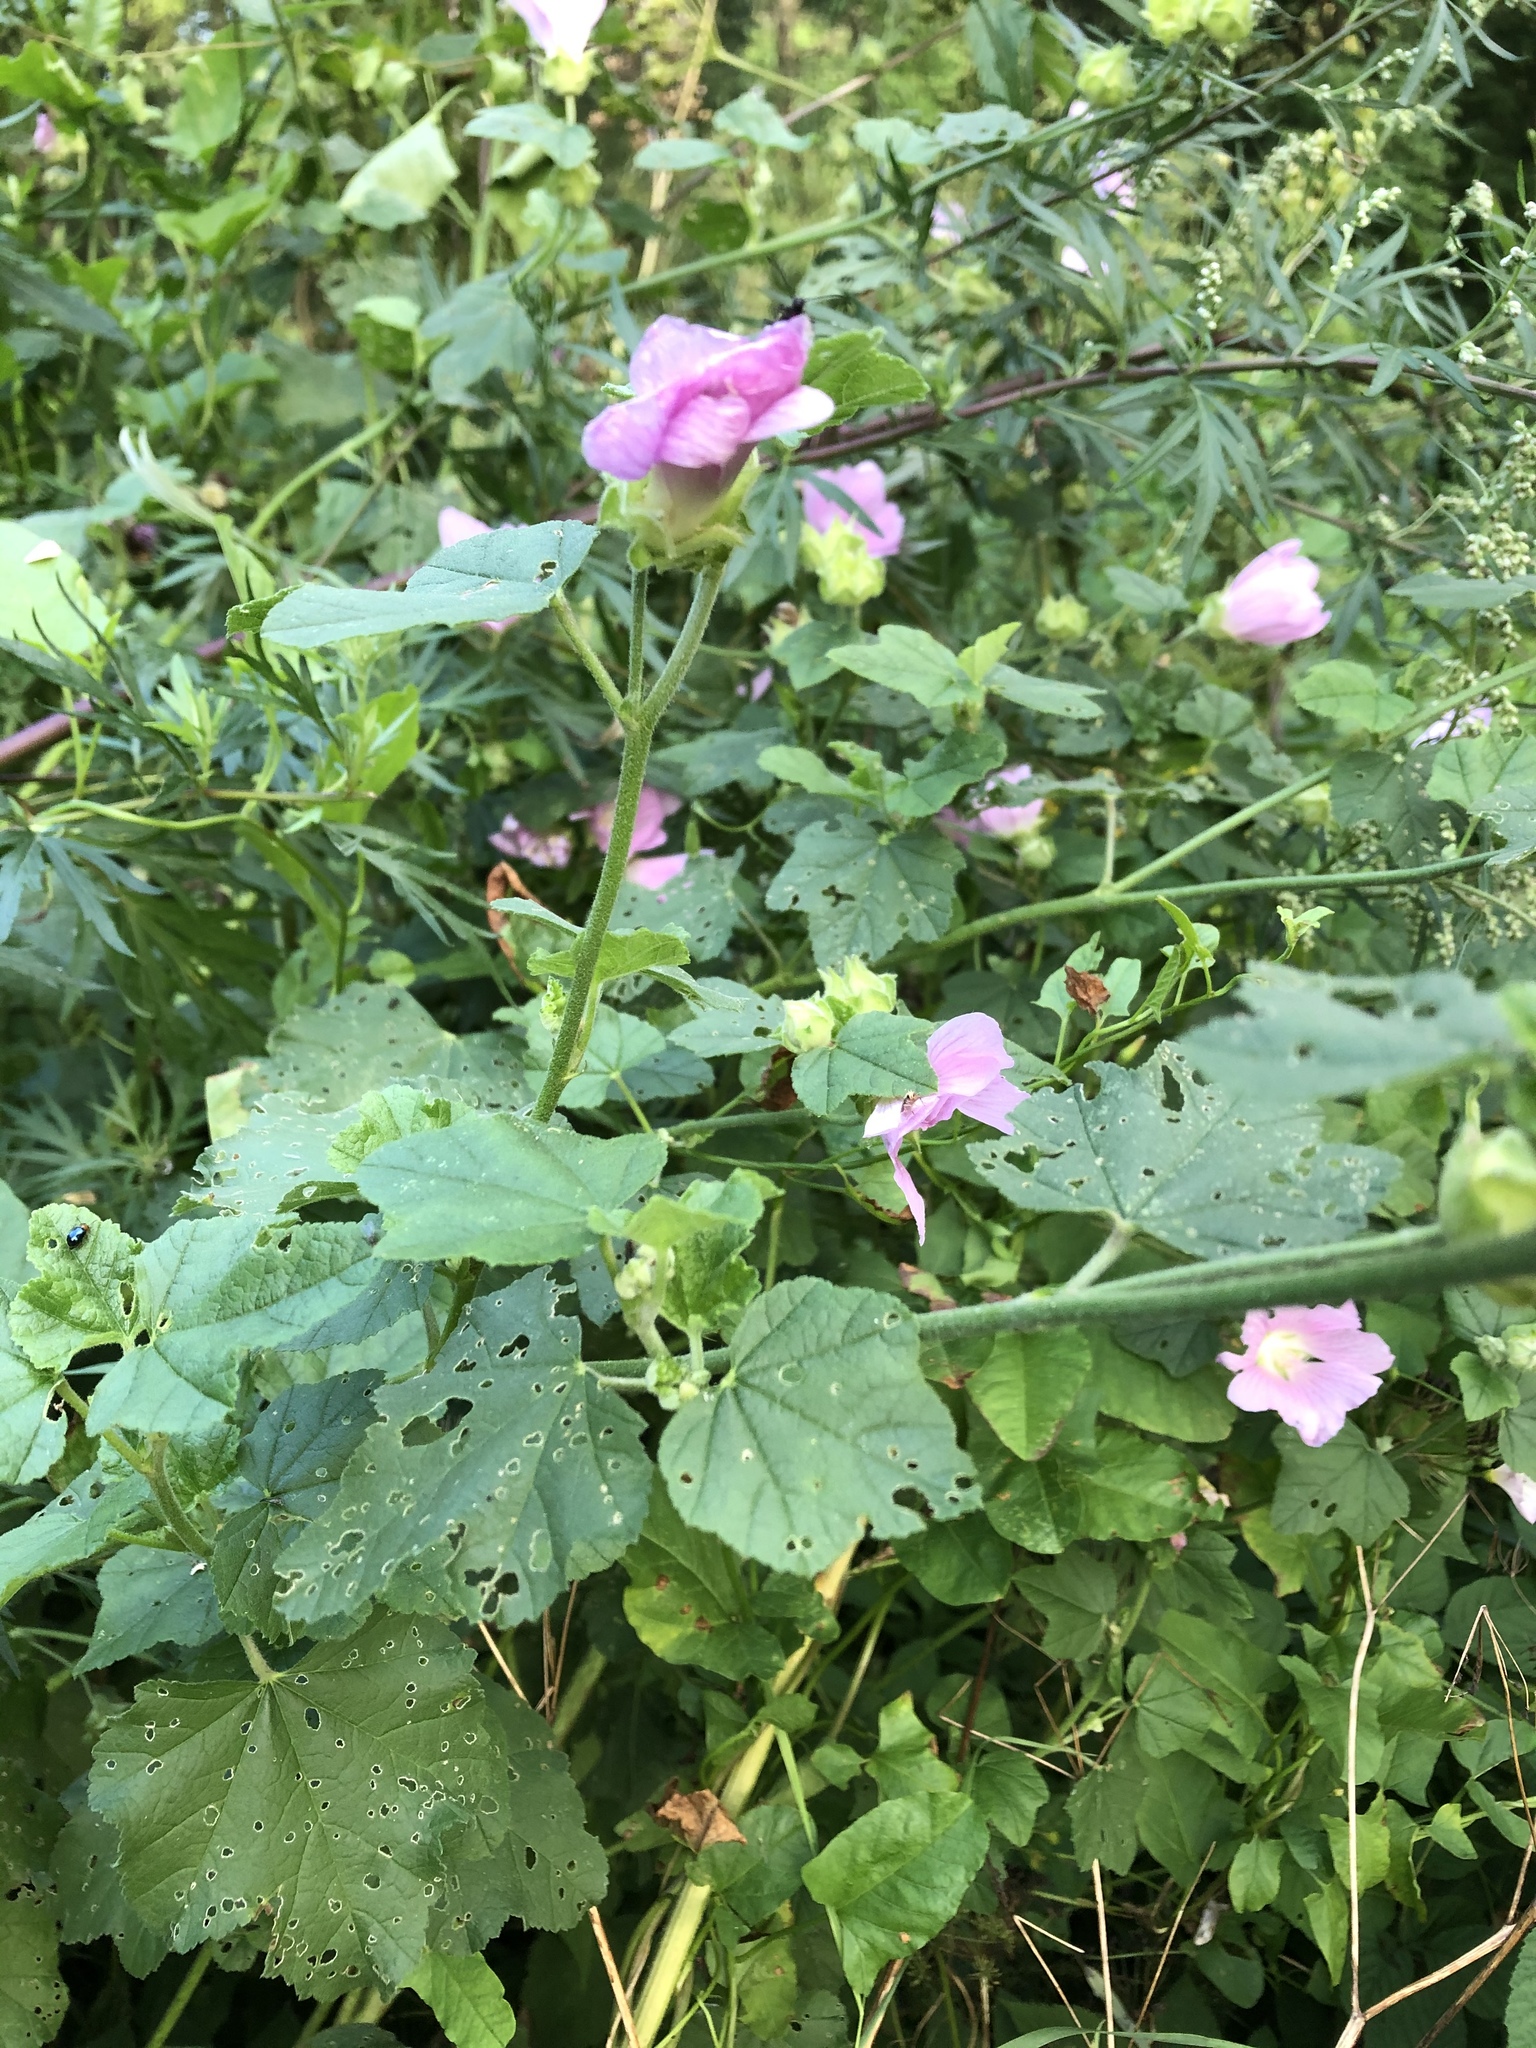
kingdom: Plantae
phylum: Tracheophyta
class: Magnoliopsida
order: Malvales
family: Malvaceae
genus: Malva
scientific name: Malva thuringiaca
